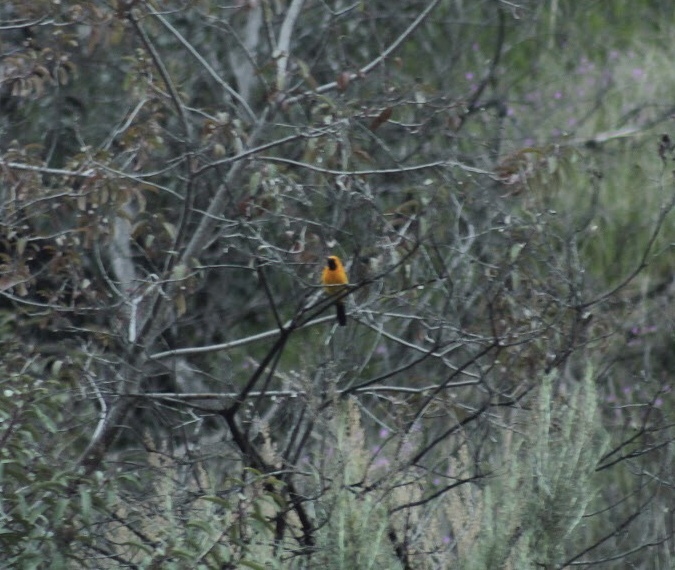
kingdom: Animalia
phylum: Chordata
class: Aves
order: Passeriformes
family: Icteridae
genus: Icterus
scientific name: Icterus cucullatus
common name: Hooded oriole
